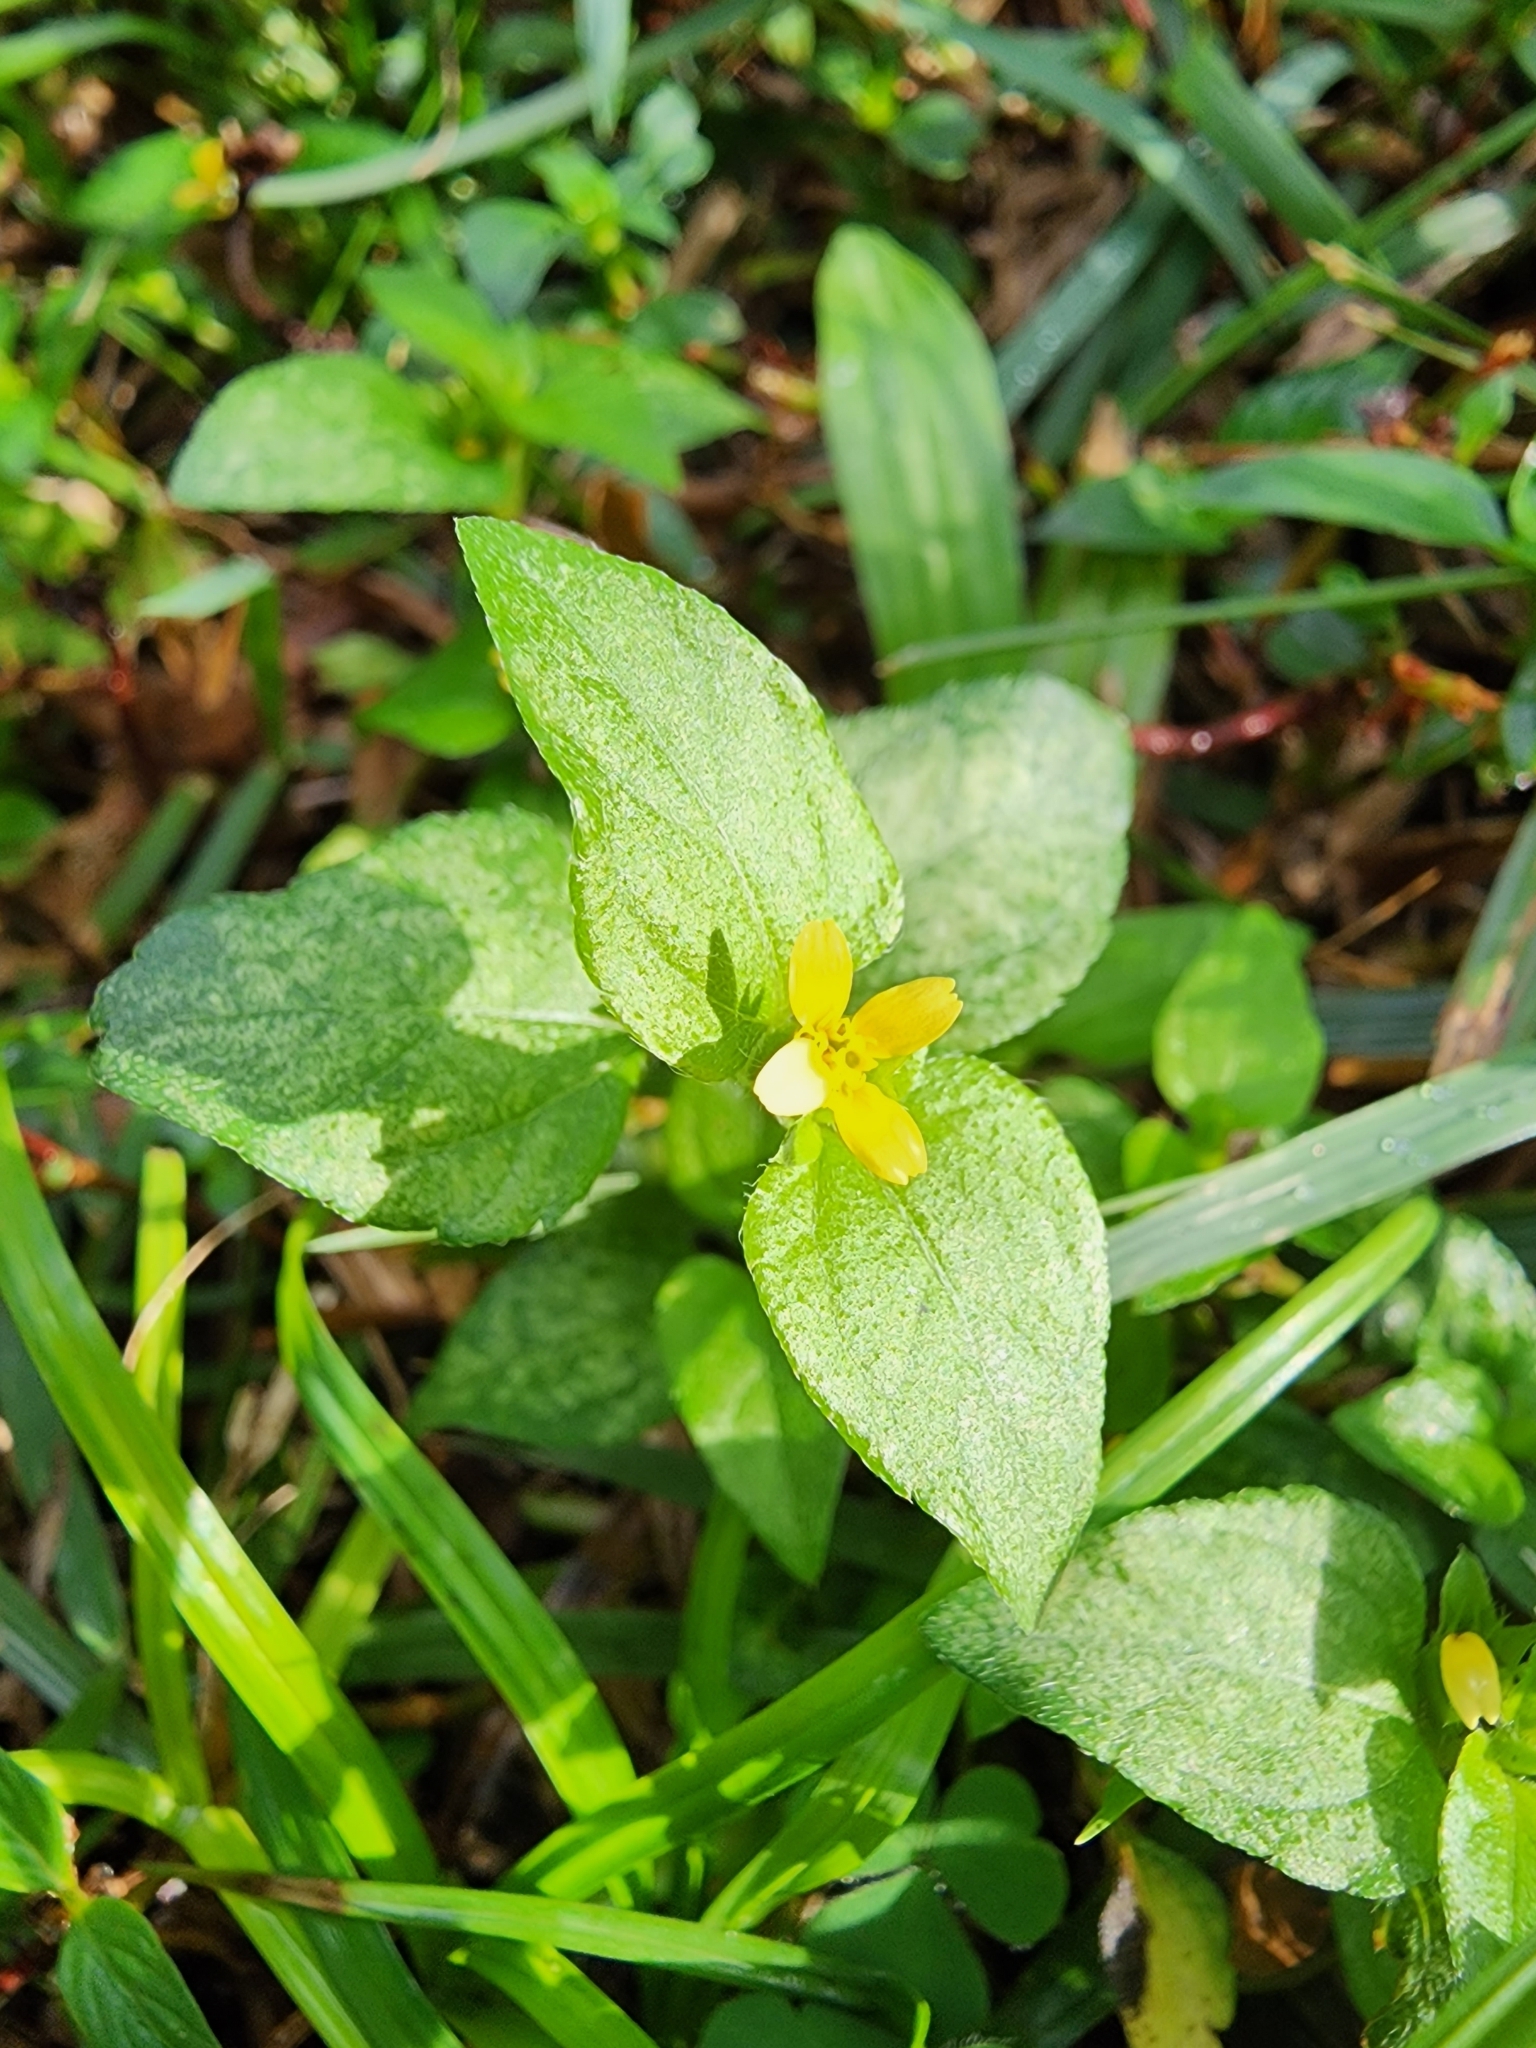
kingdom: Plantae
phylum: Tracheophyta
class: Magnoliopsida
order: Asterales
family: Asteraceae
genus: Calyptocarpus
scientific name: Calyptocarpus vialis
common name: Straggler daisy
